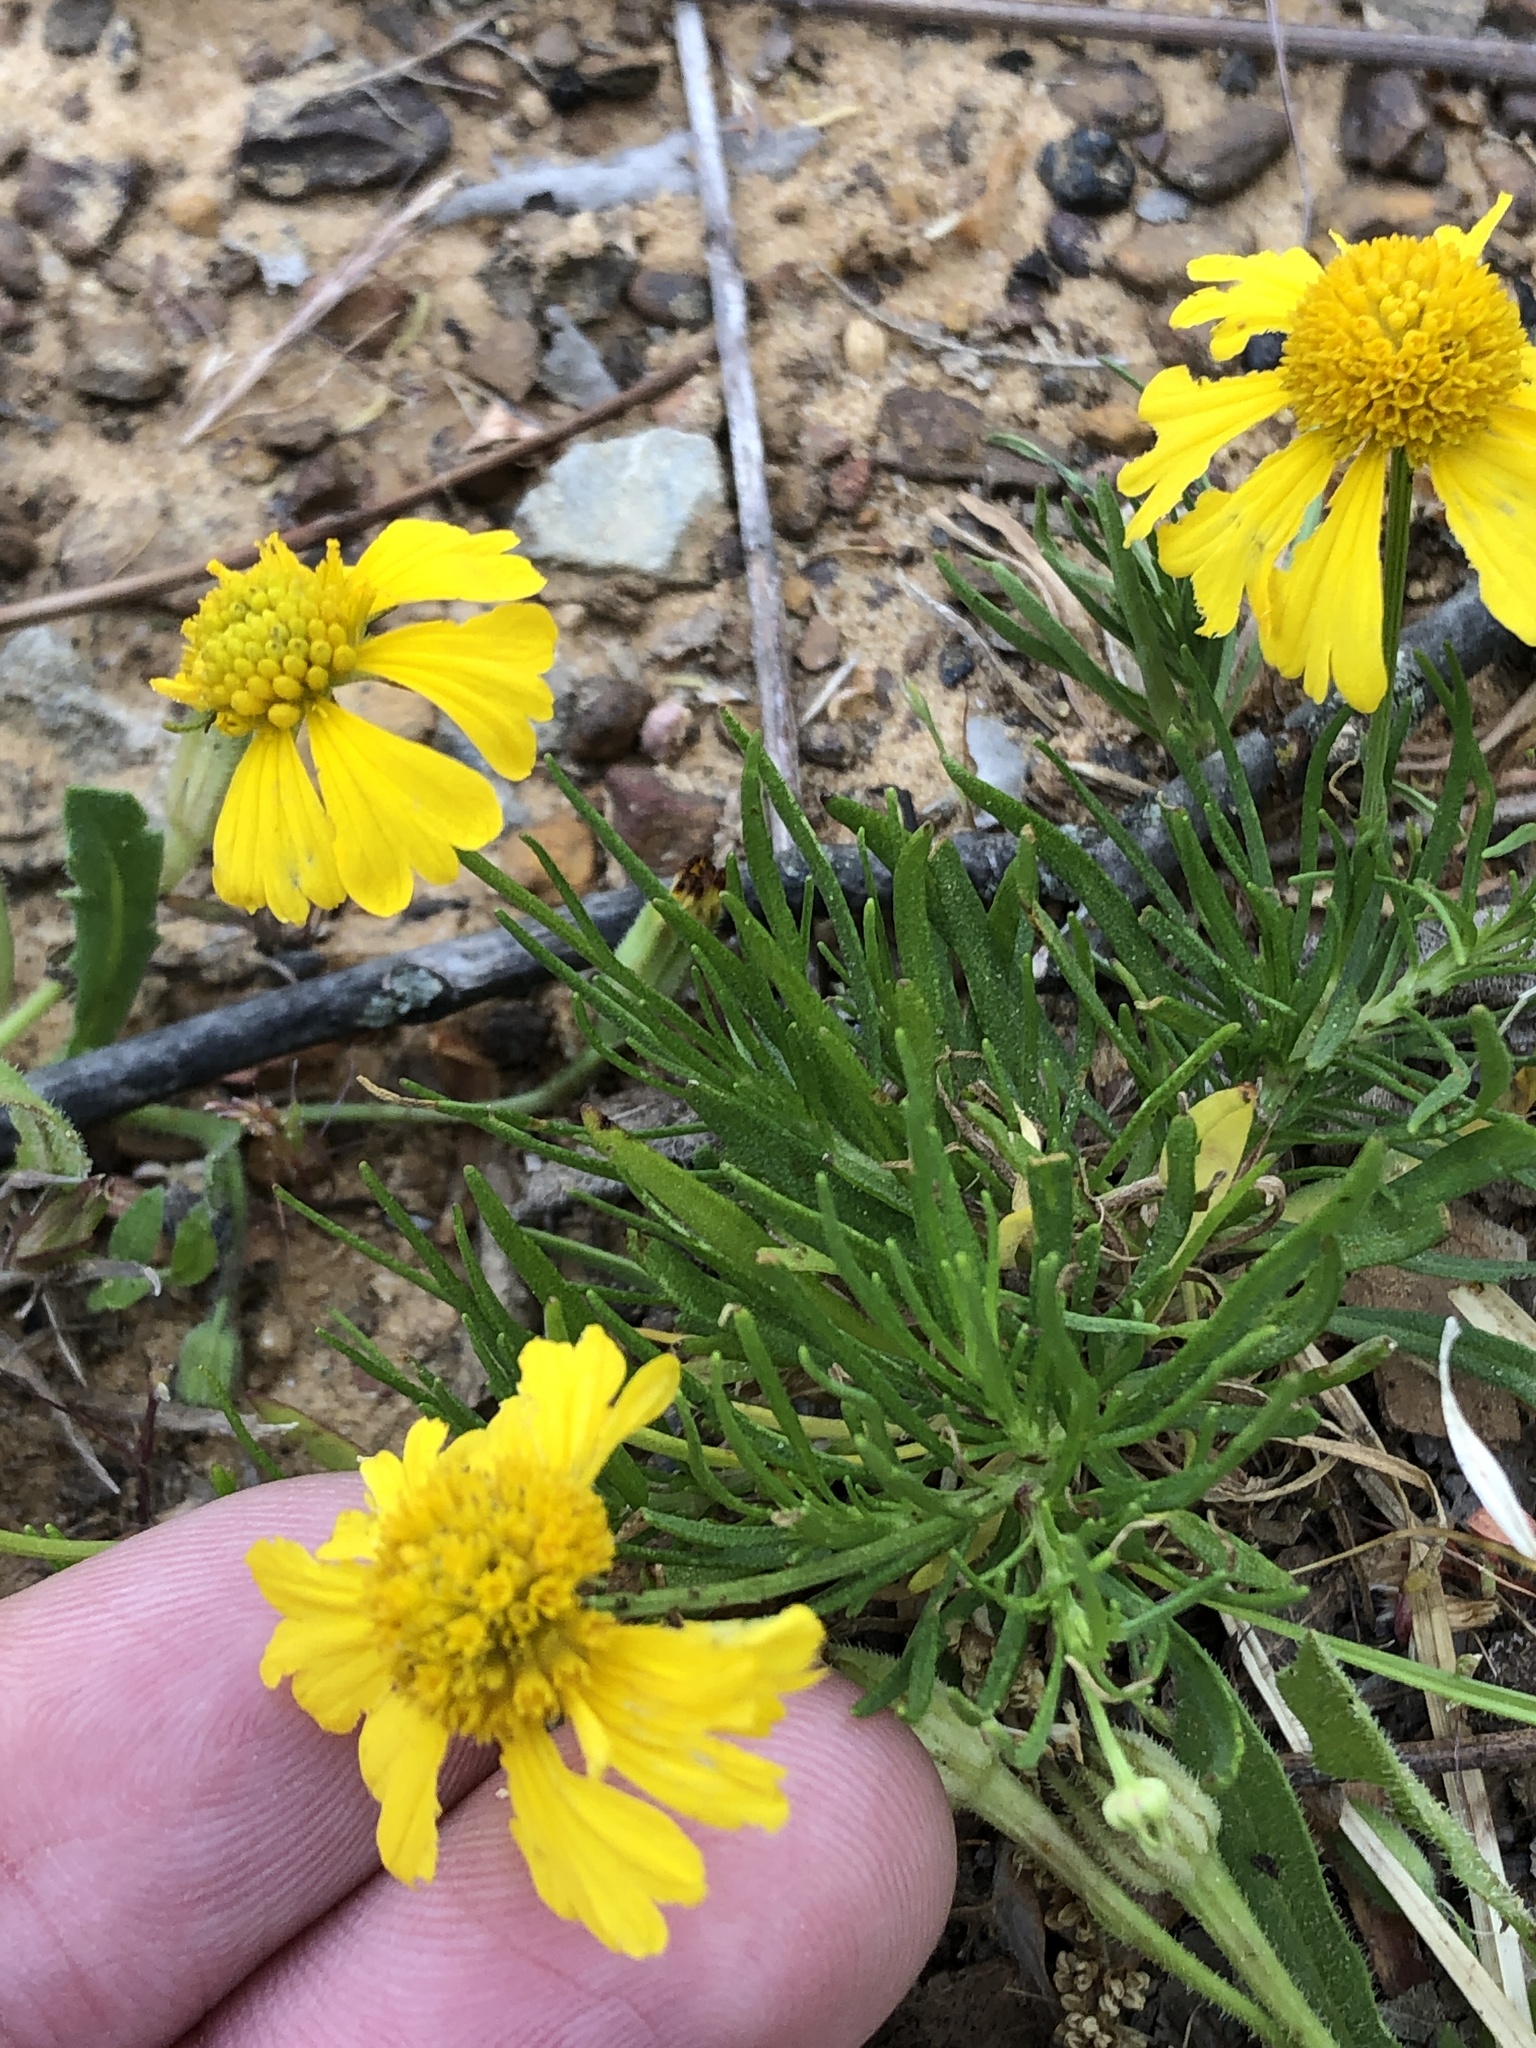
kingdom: Plantae
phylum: Tracheophyta
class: Magnoliopsida
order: Asterales
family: Asteraceae
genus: Helenium
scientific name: Helenium amarum
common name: Bitter sneezeweed
